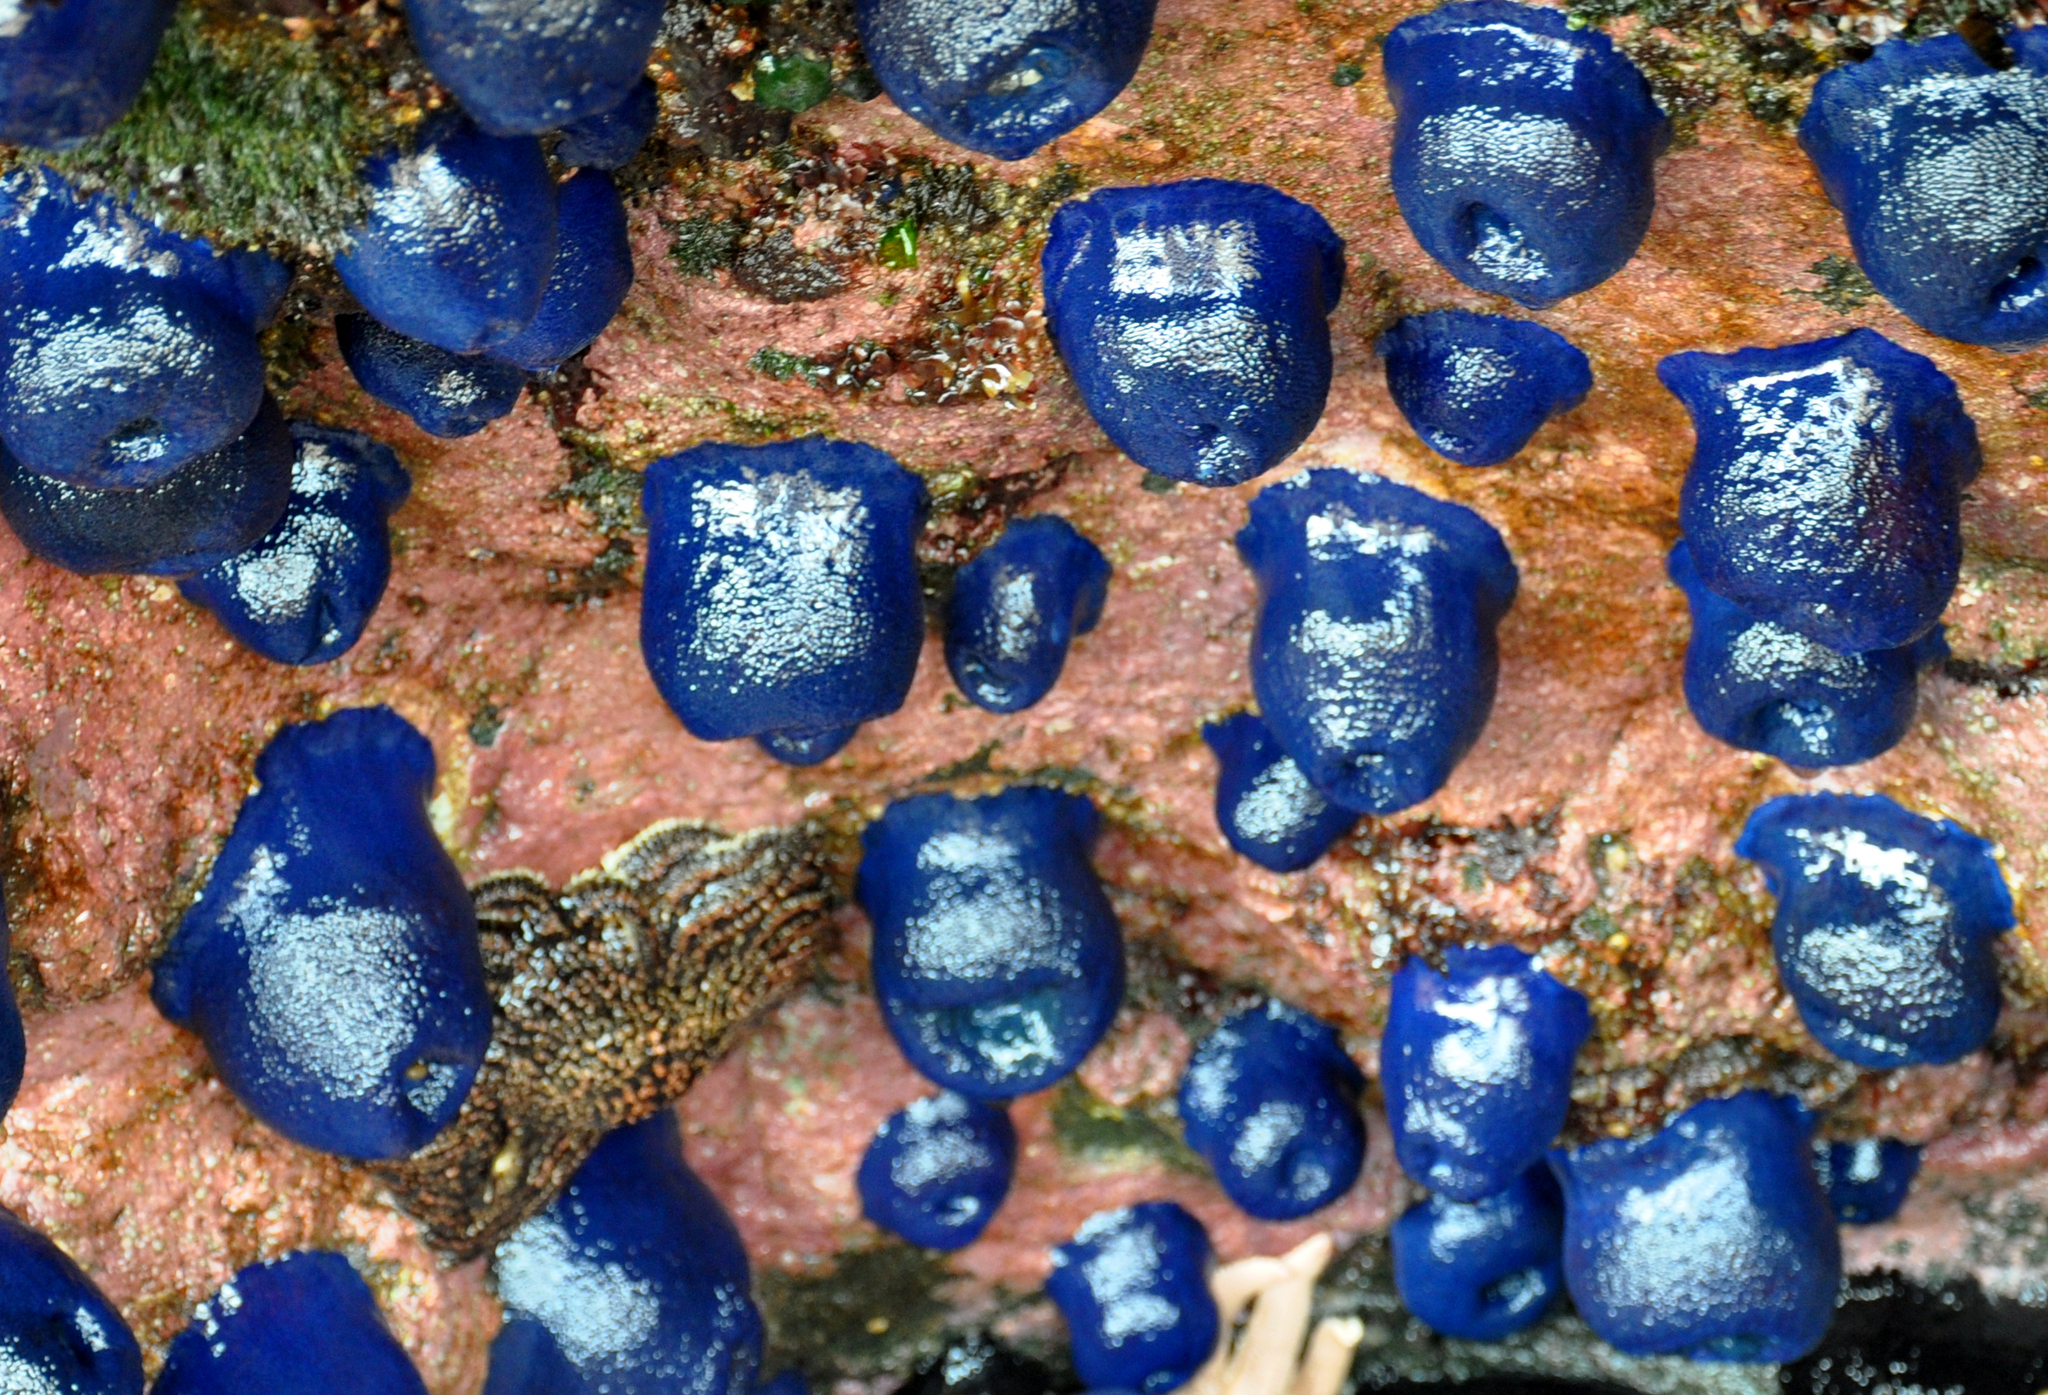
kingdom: Animalia
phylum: Cnidaria
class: Anthozoa
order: Actiniaria
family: Actiniidae
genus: Phymactis
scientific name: Phymactis papillosa
